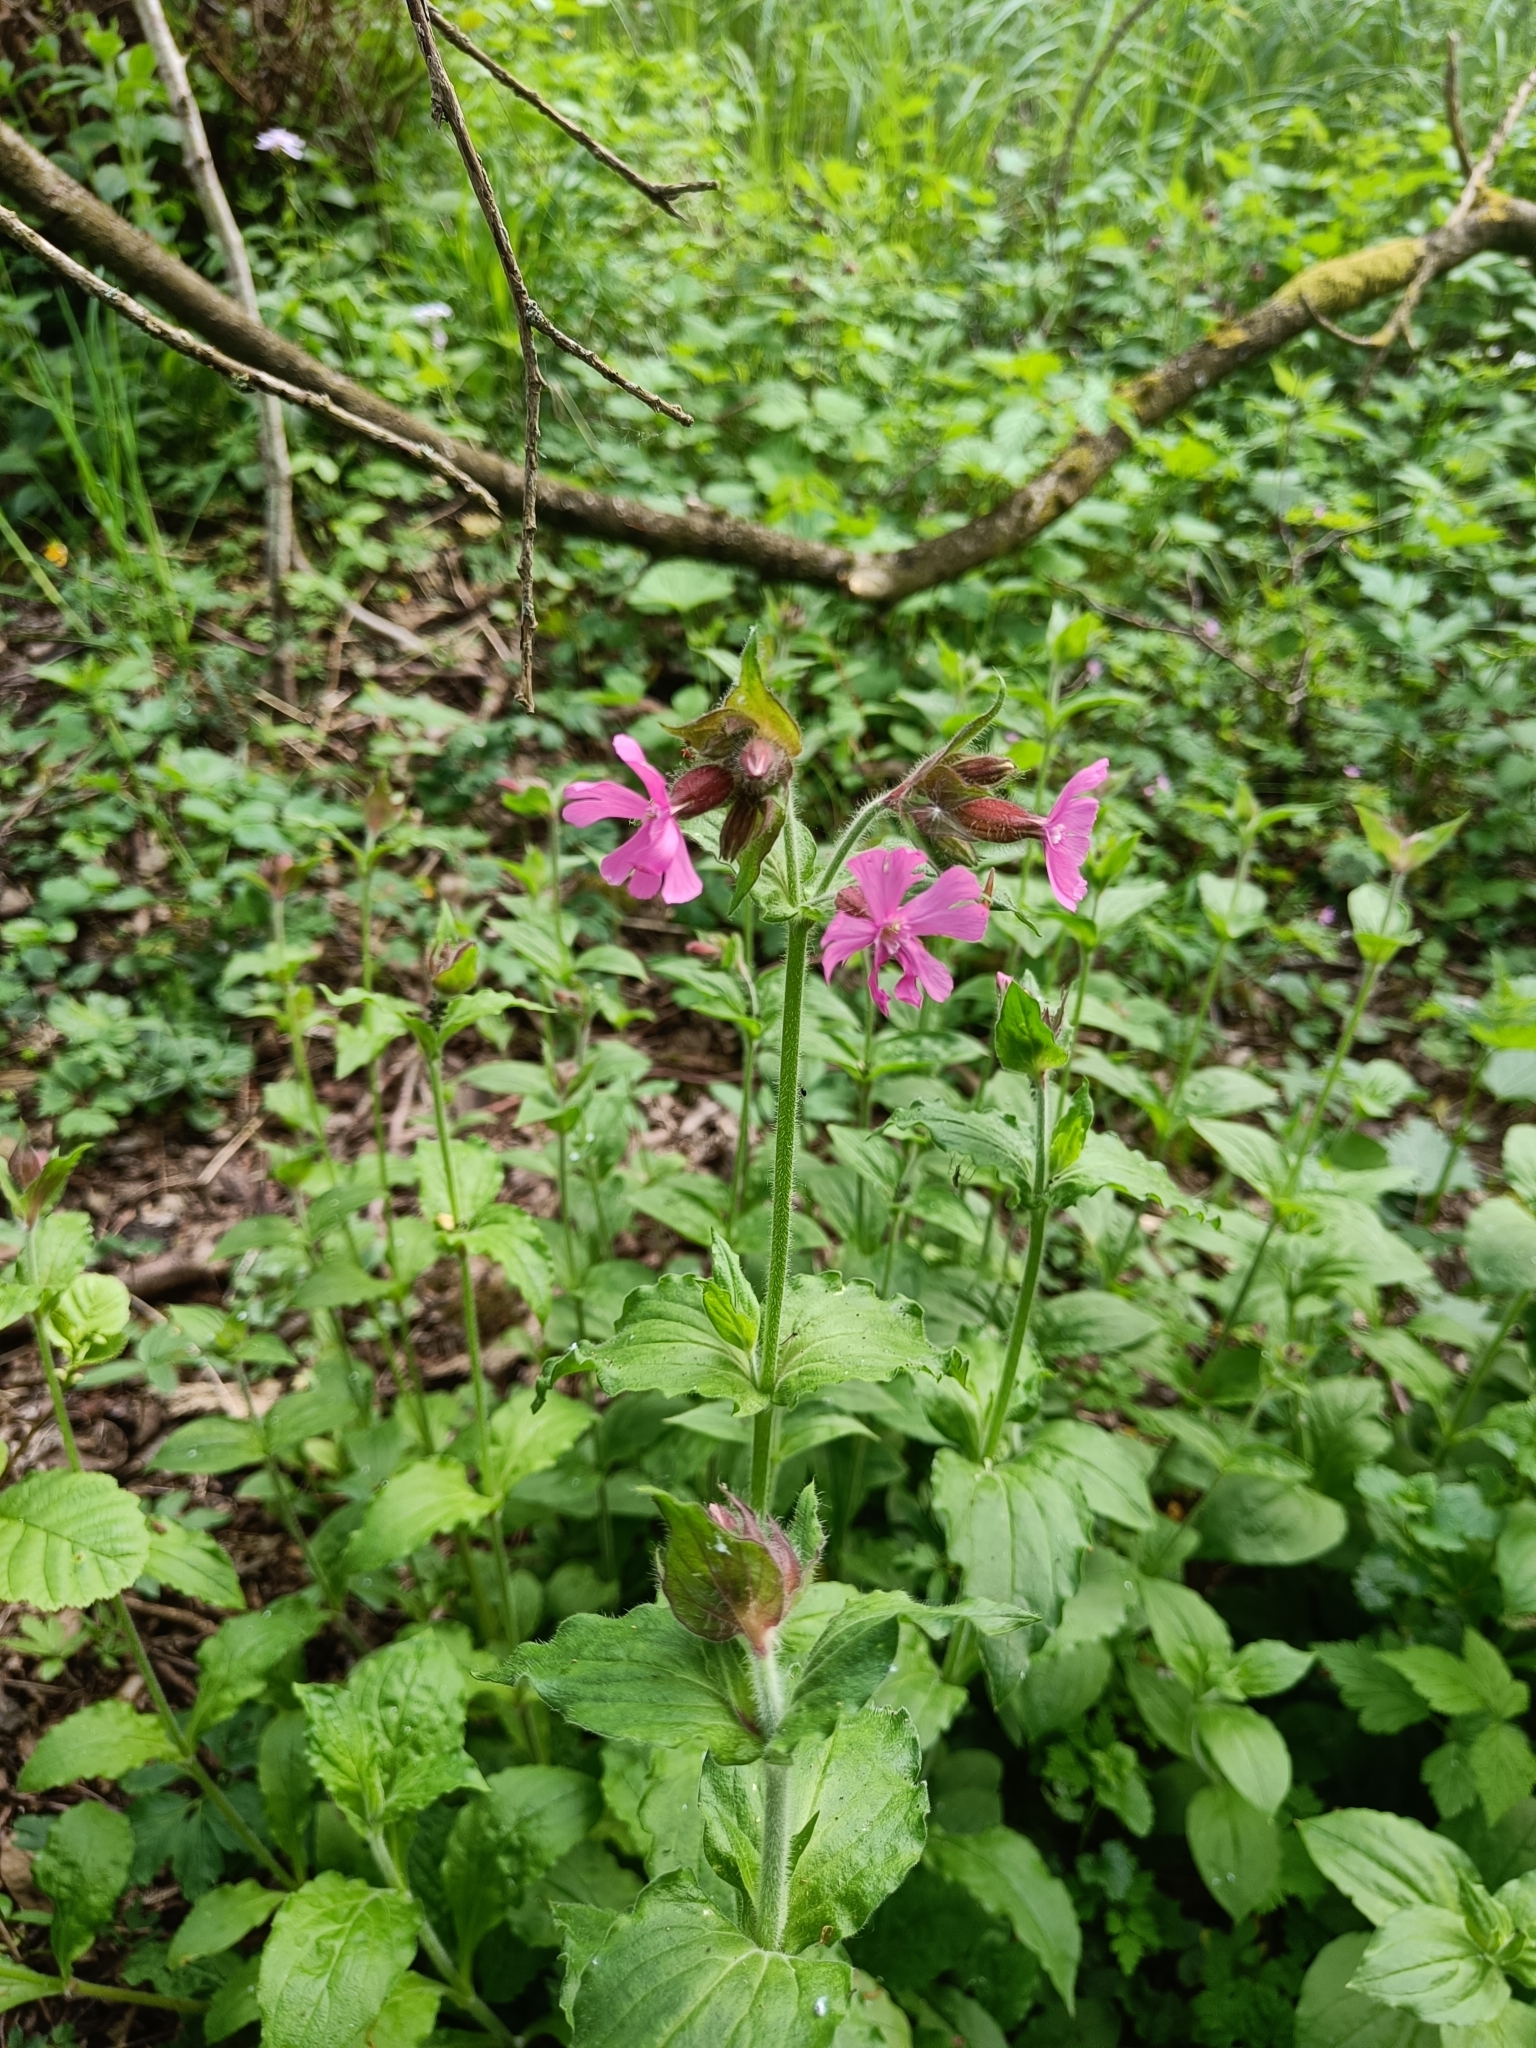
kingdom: Plantae
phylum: Tracheophyta
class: Magnoliopsida
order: Caryophyllales
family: Caryophyllaceae
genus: Silene
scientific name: Silene dioica
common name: Red campion
